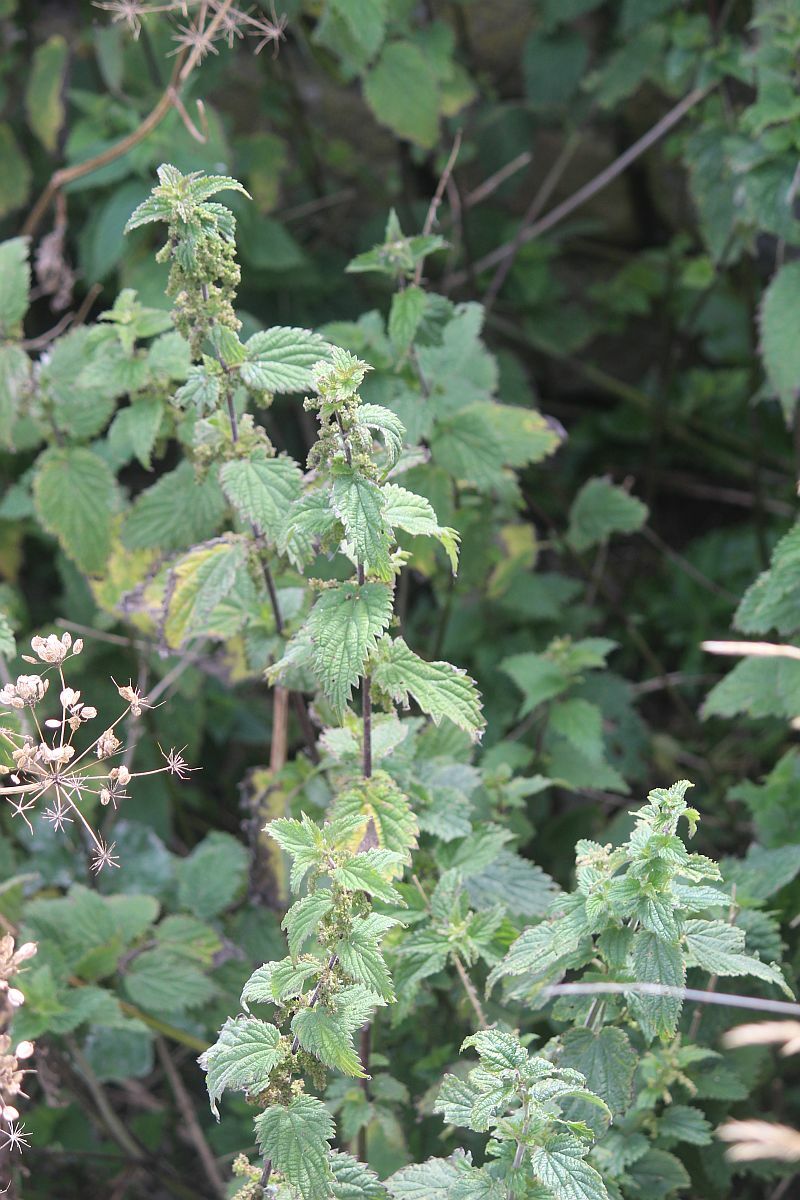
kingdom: Plantae
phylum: Tracheophyta
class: Magnoliopsida
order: Rosales
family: Urticaceae
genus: Urtica
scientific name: Urtica dioica
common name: Common nettle
